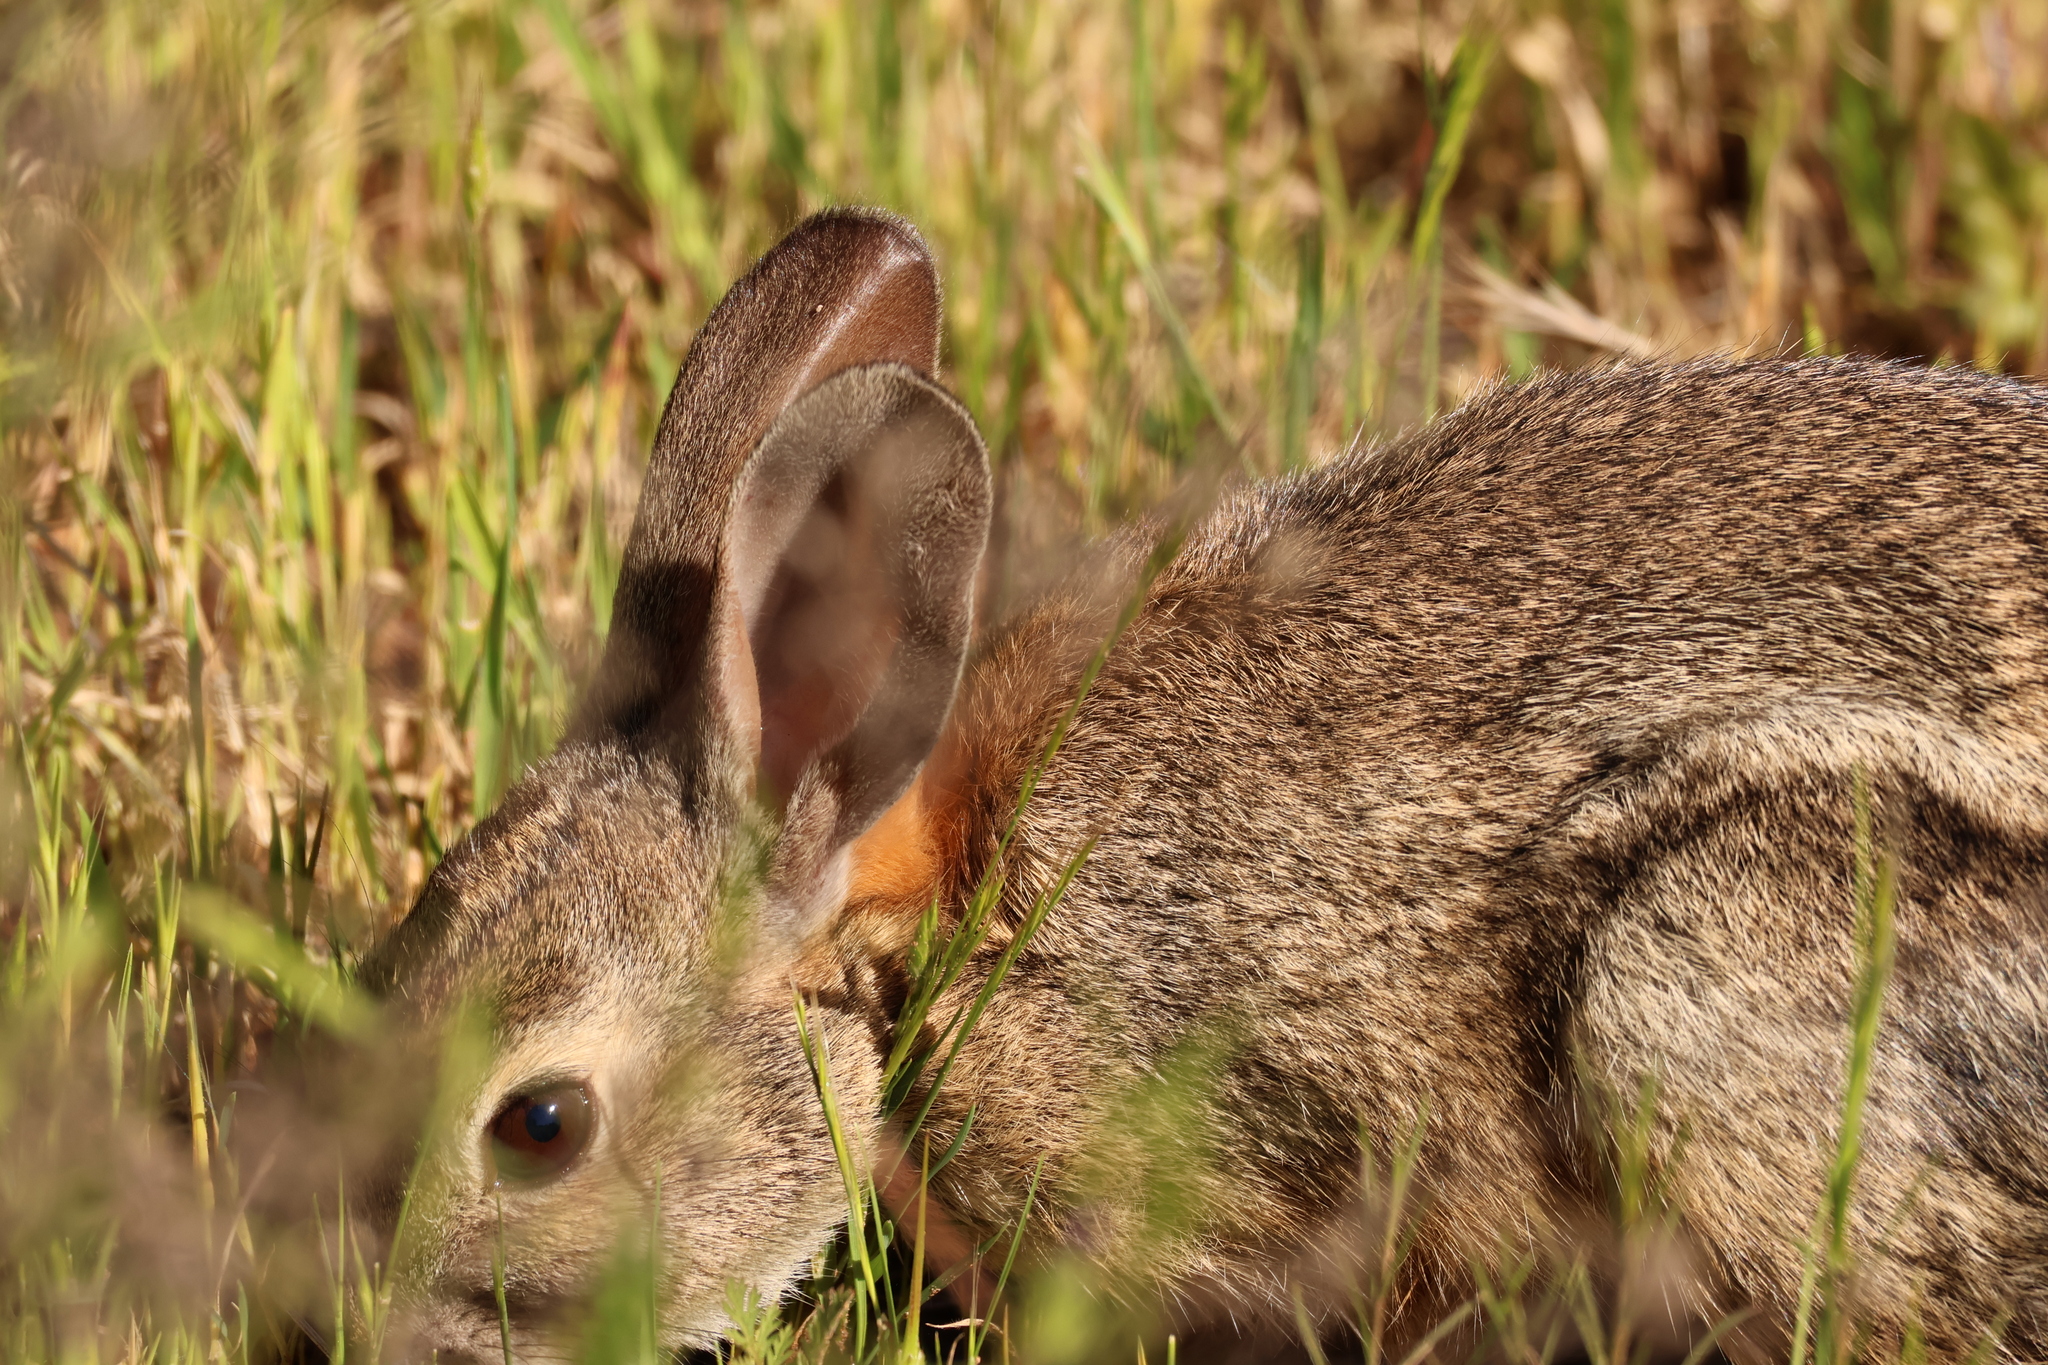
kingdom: Animalia
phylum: Chordata
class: Mammalia
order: Lagomorpha
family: Leporidae
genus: Sylvilagus
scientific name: Sylvilagus bachmani
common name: Brush rabbit
